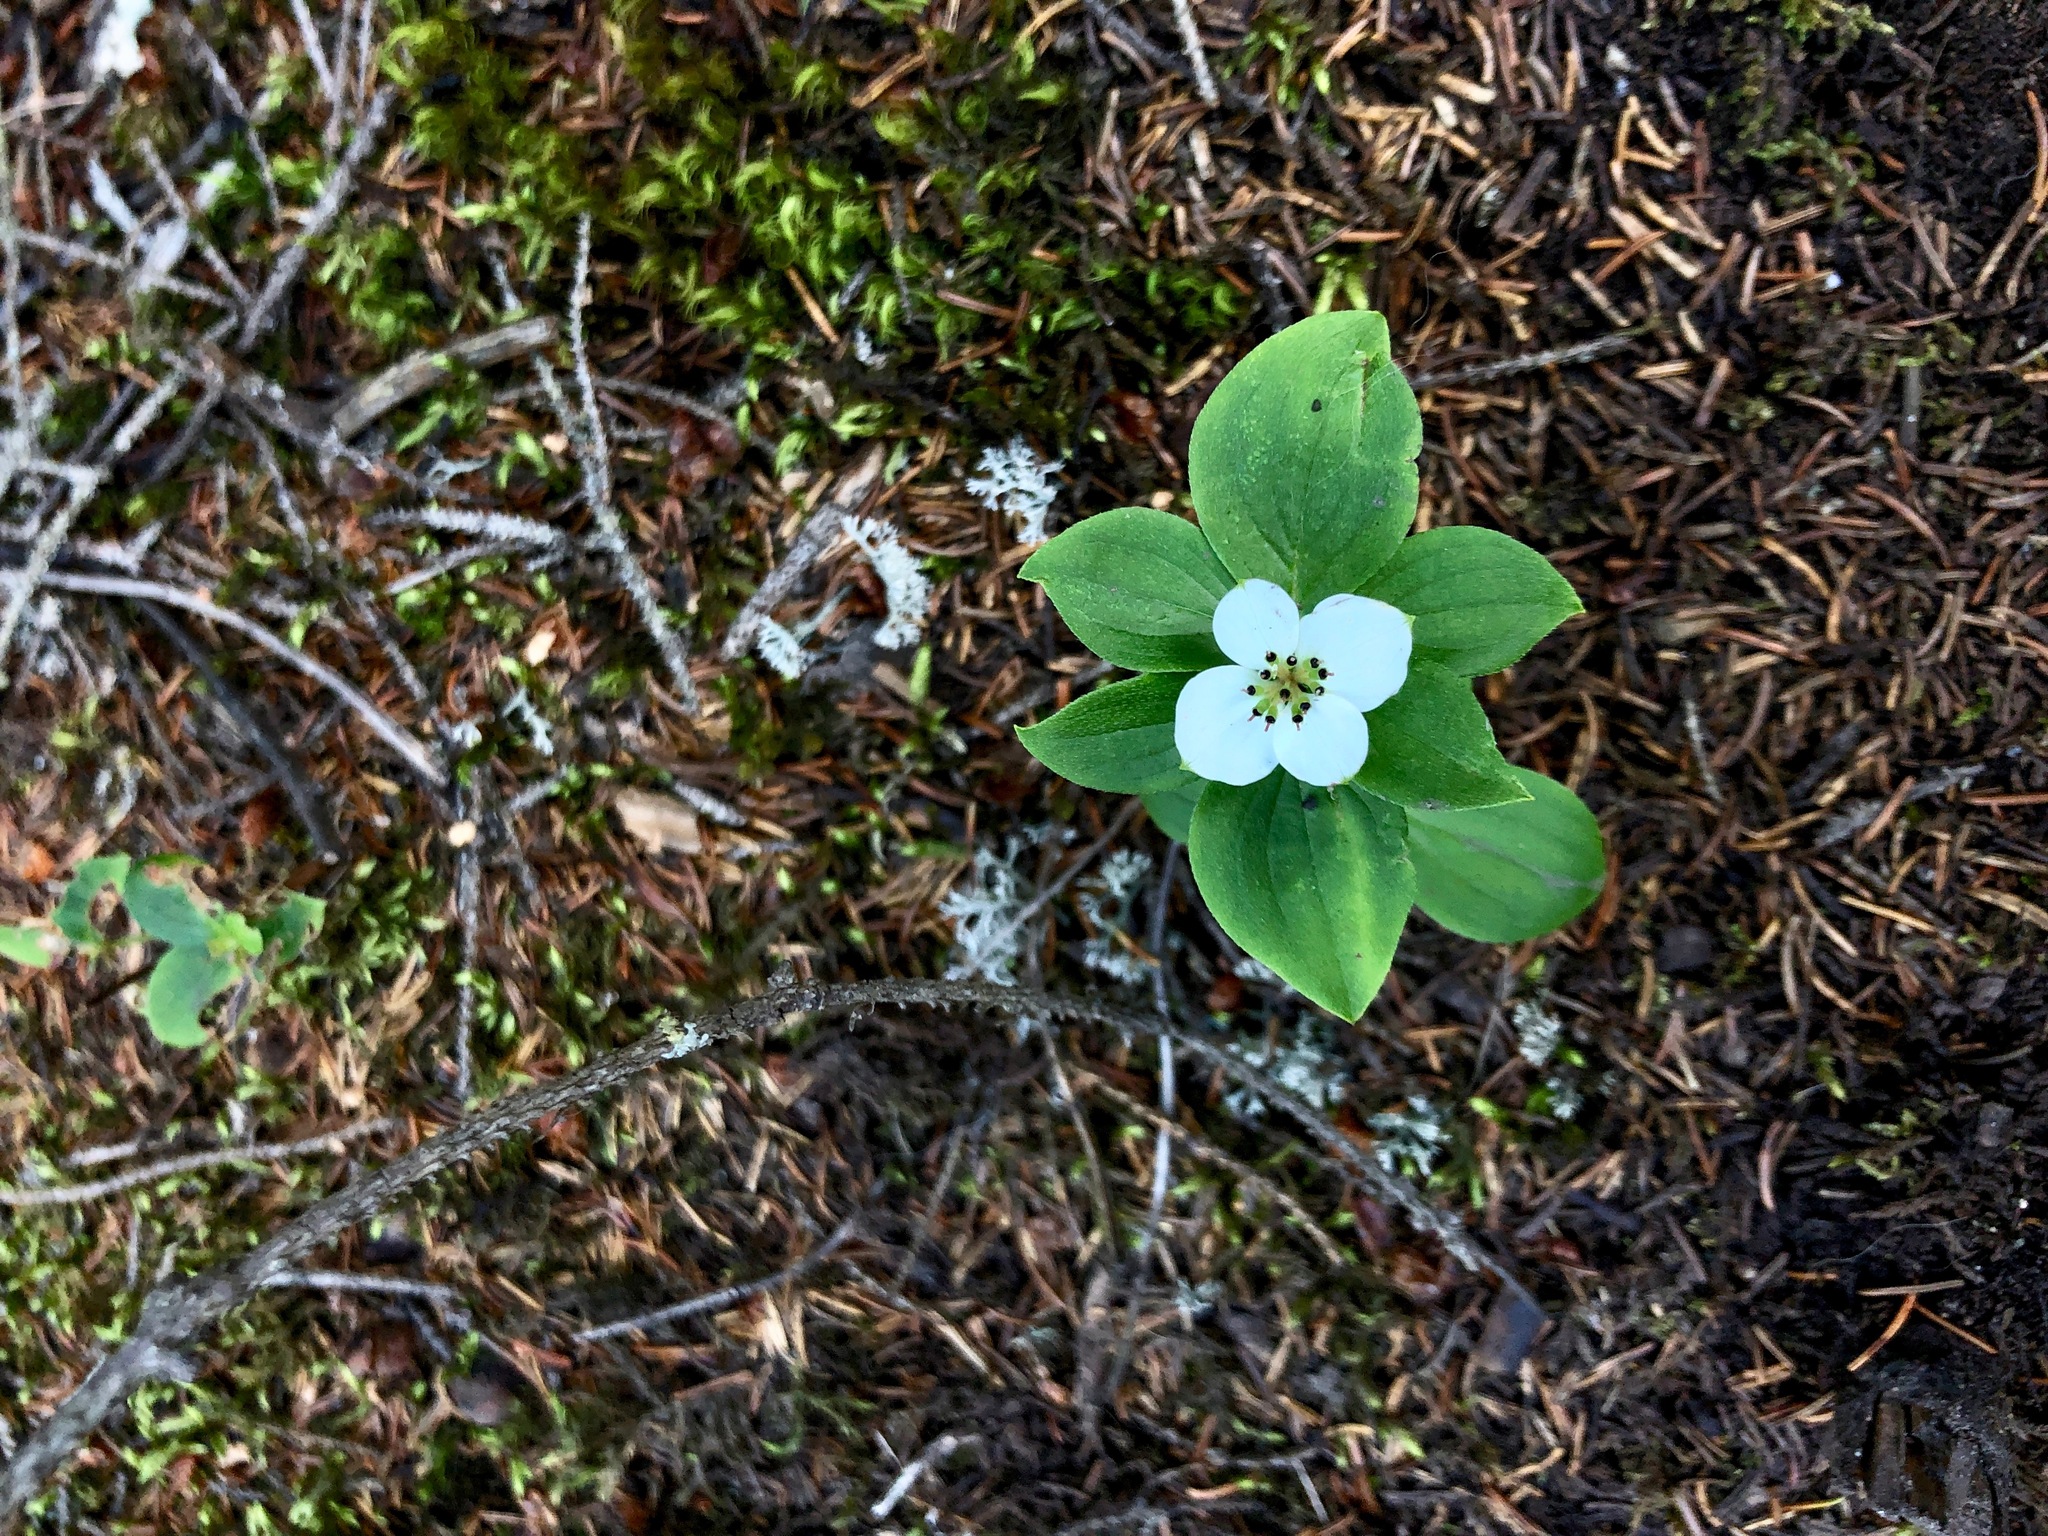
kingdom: Plantae
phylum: Tracheophyta
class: Magnoliopsida
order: Cornales
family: Cornaceae
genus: Cornus
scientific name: Cornus canadensis
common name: Creeping dogwood
